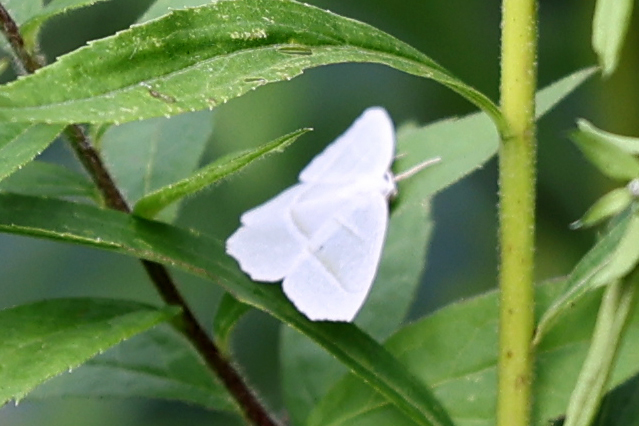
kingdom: Animalia
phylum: Arthropoda
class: Insecta
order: Lepidoptera
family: Geometridae
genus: Campaea
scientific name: Campaea perlata
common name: Fringed looper
